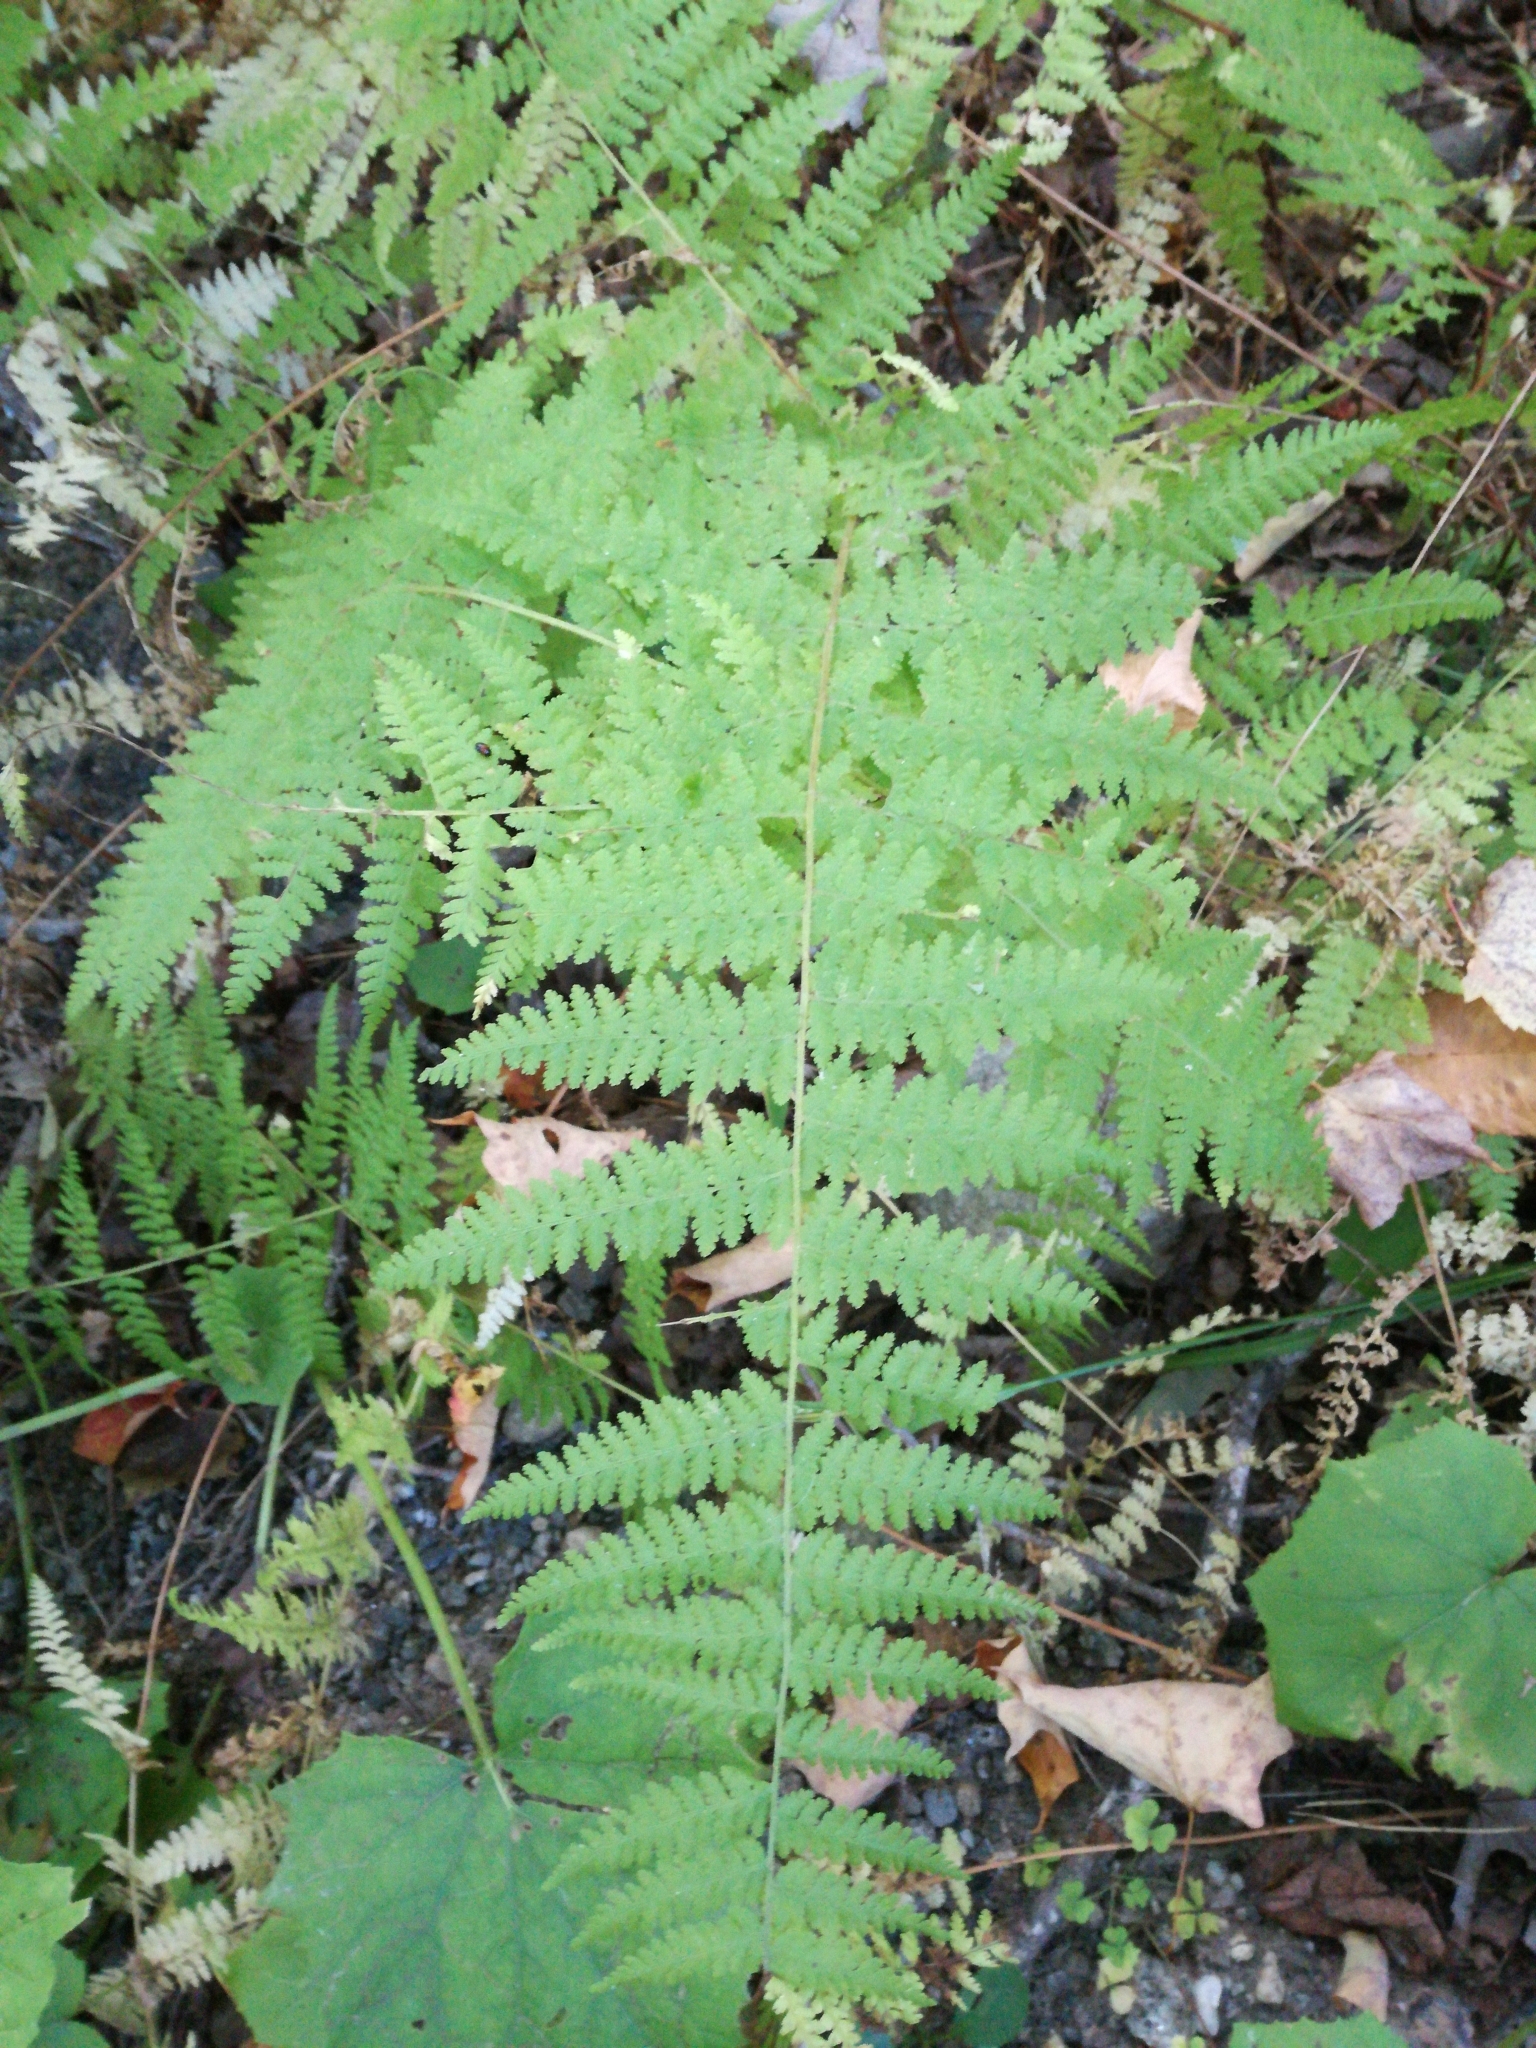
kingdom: Plantae
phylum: Tracheophyta
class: Polypodiopsida
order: Polypodiales
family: Dennstaedtiaceae
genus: Sitobolium
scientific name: Sitobolium punctilobum
